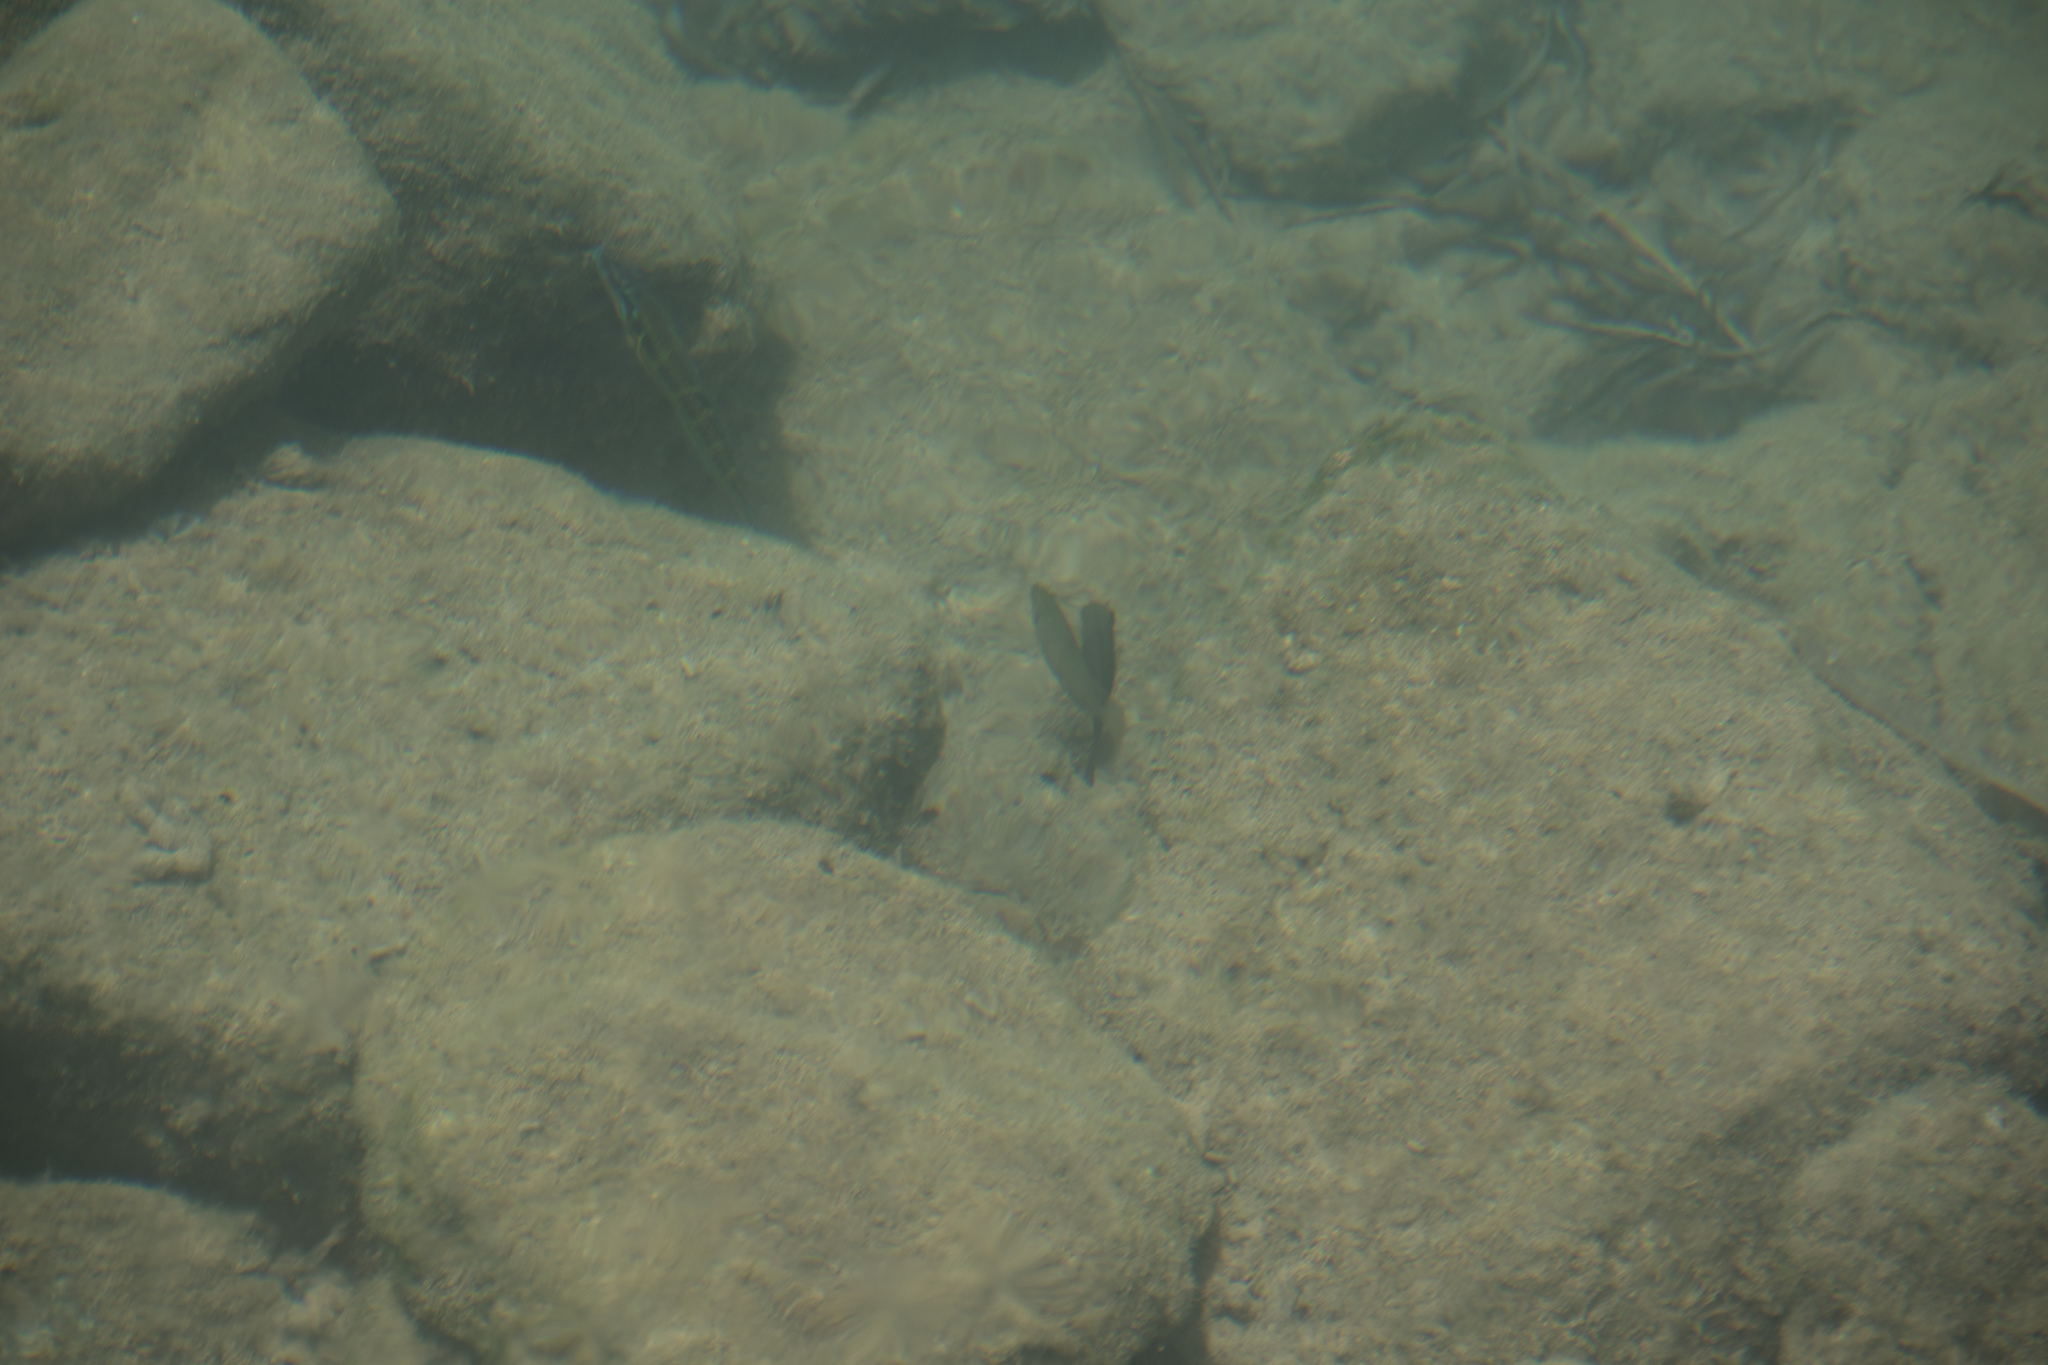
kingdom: Animalia
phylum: Chordata
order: Perciformes
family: Sparidae
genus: Sarpa
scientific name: Sarpa salpa
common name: Salema
